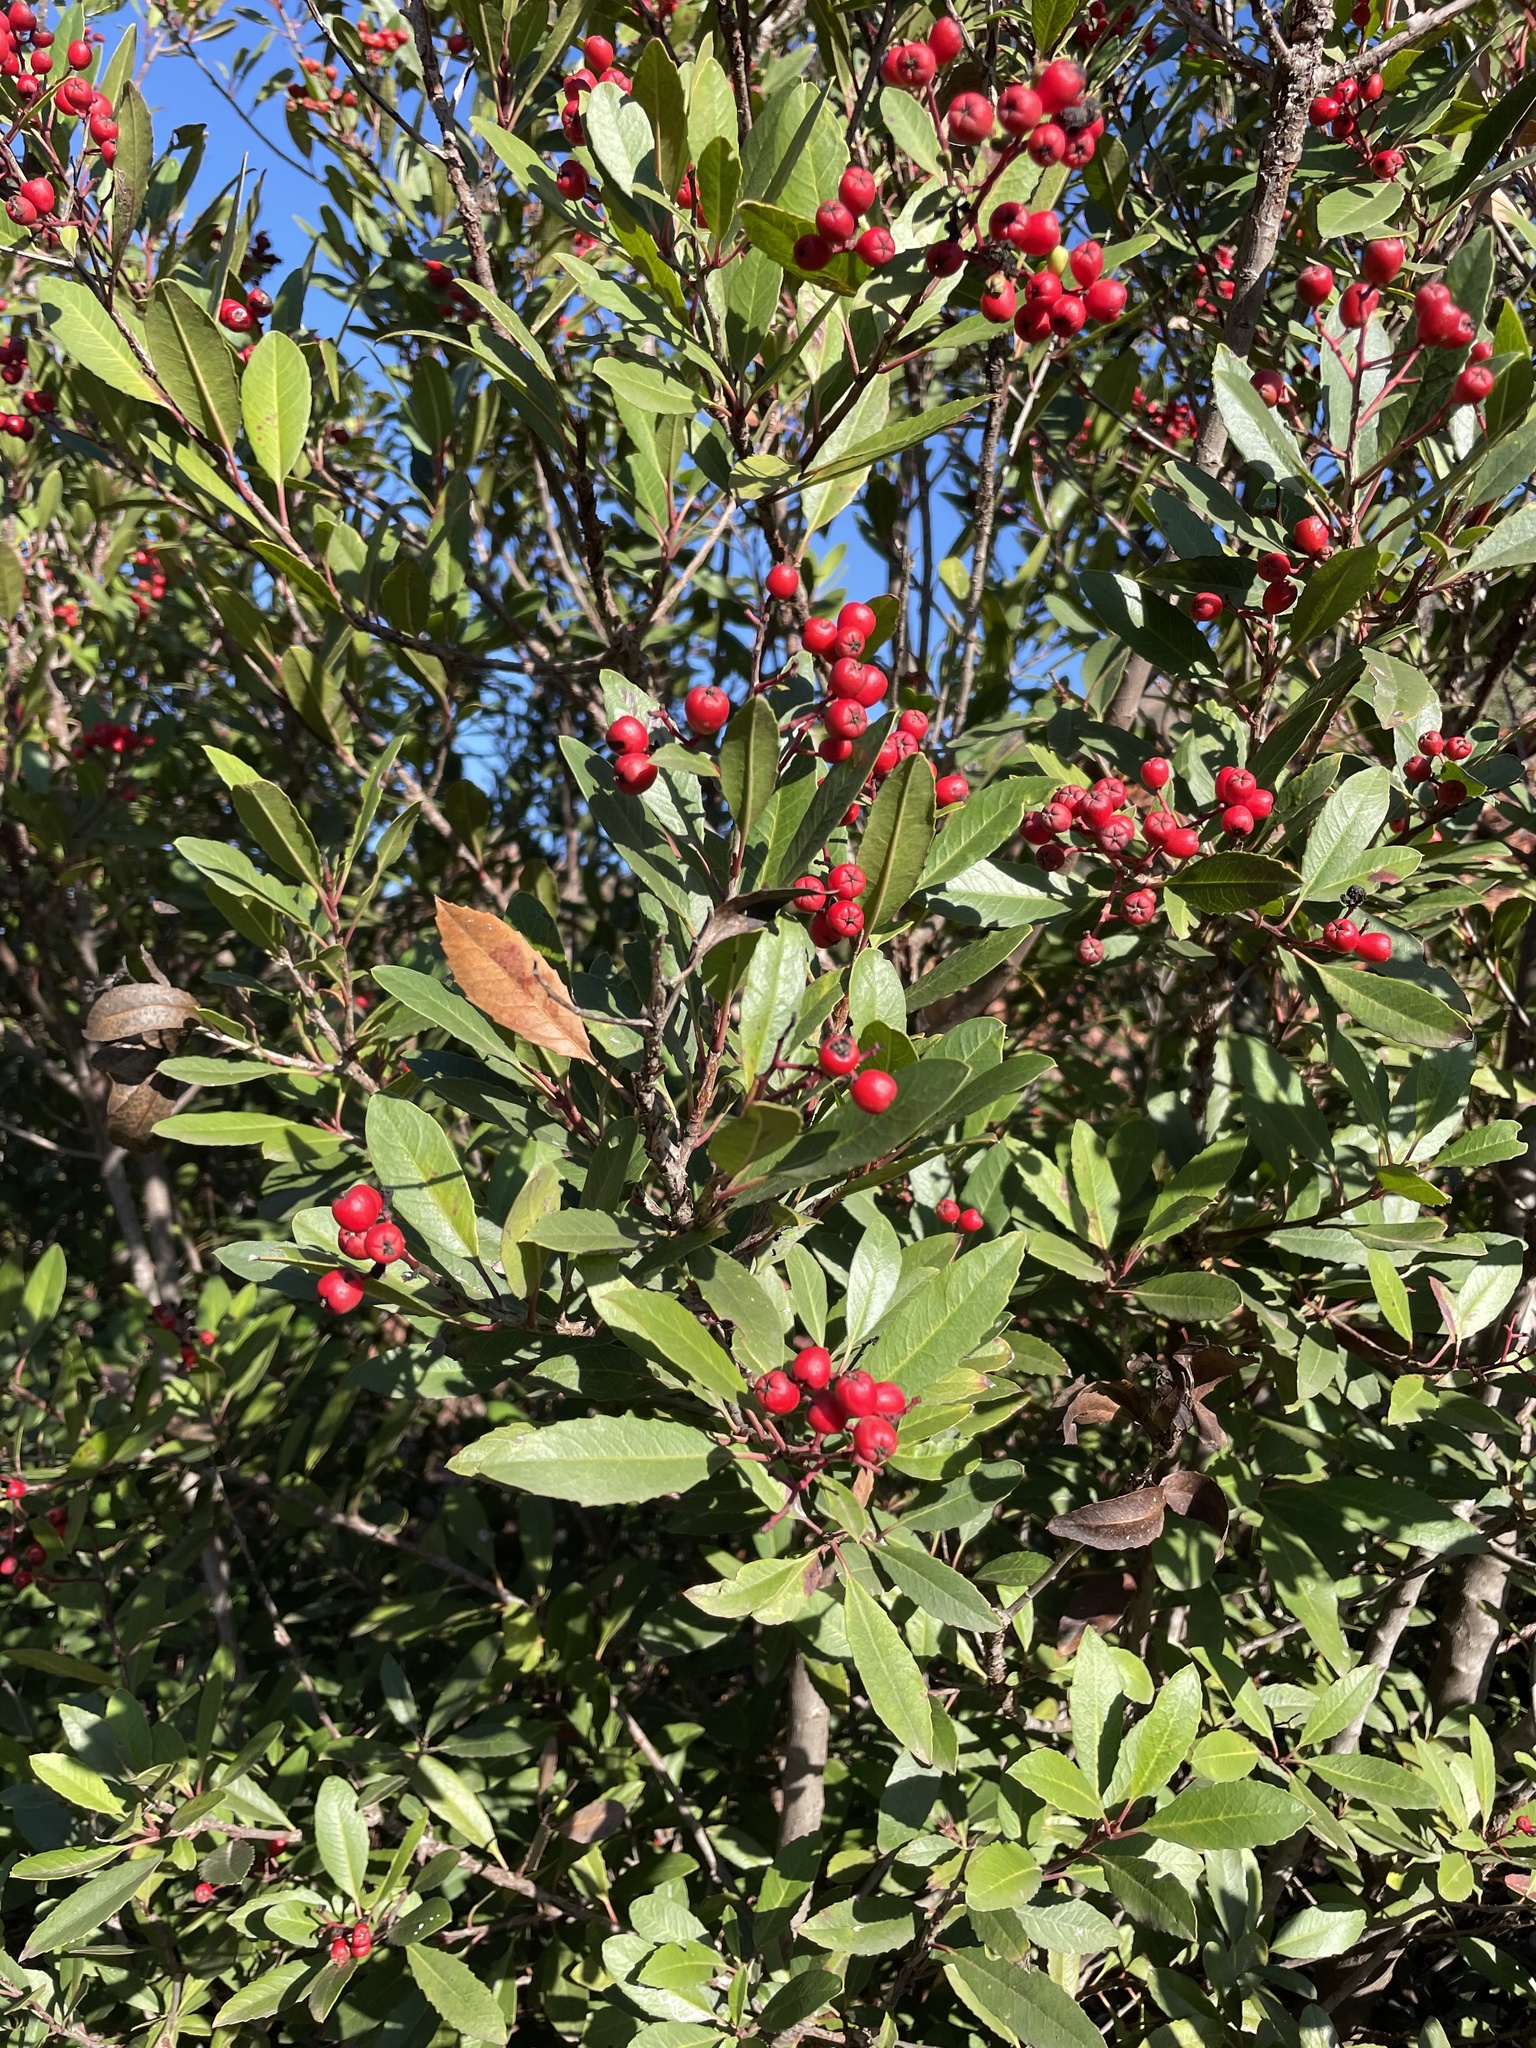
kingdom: Plantae
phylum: Tracheophyta
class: Magnoliopsida
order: Rosales
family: Rosaceae
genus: Heteromeles
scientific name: Heteromeles arbutifolia
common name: California-holly
